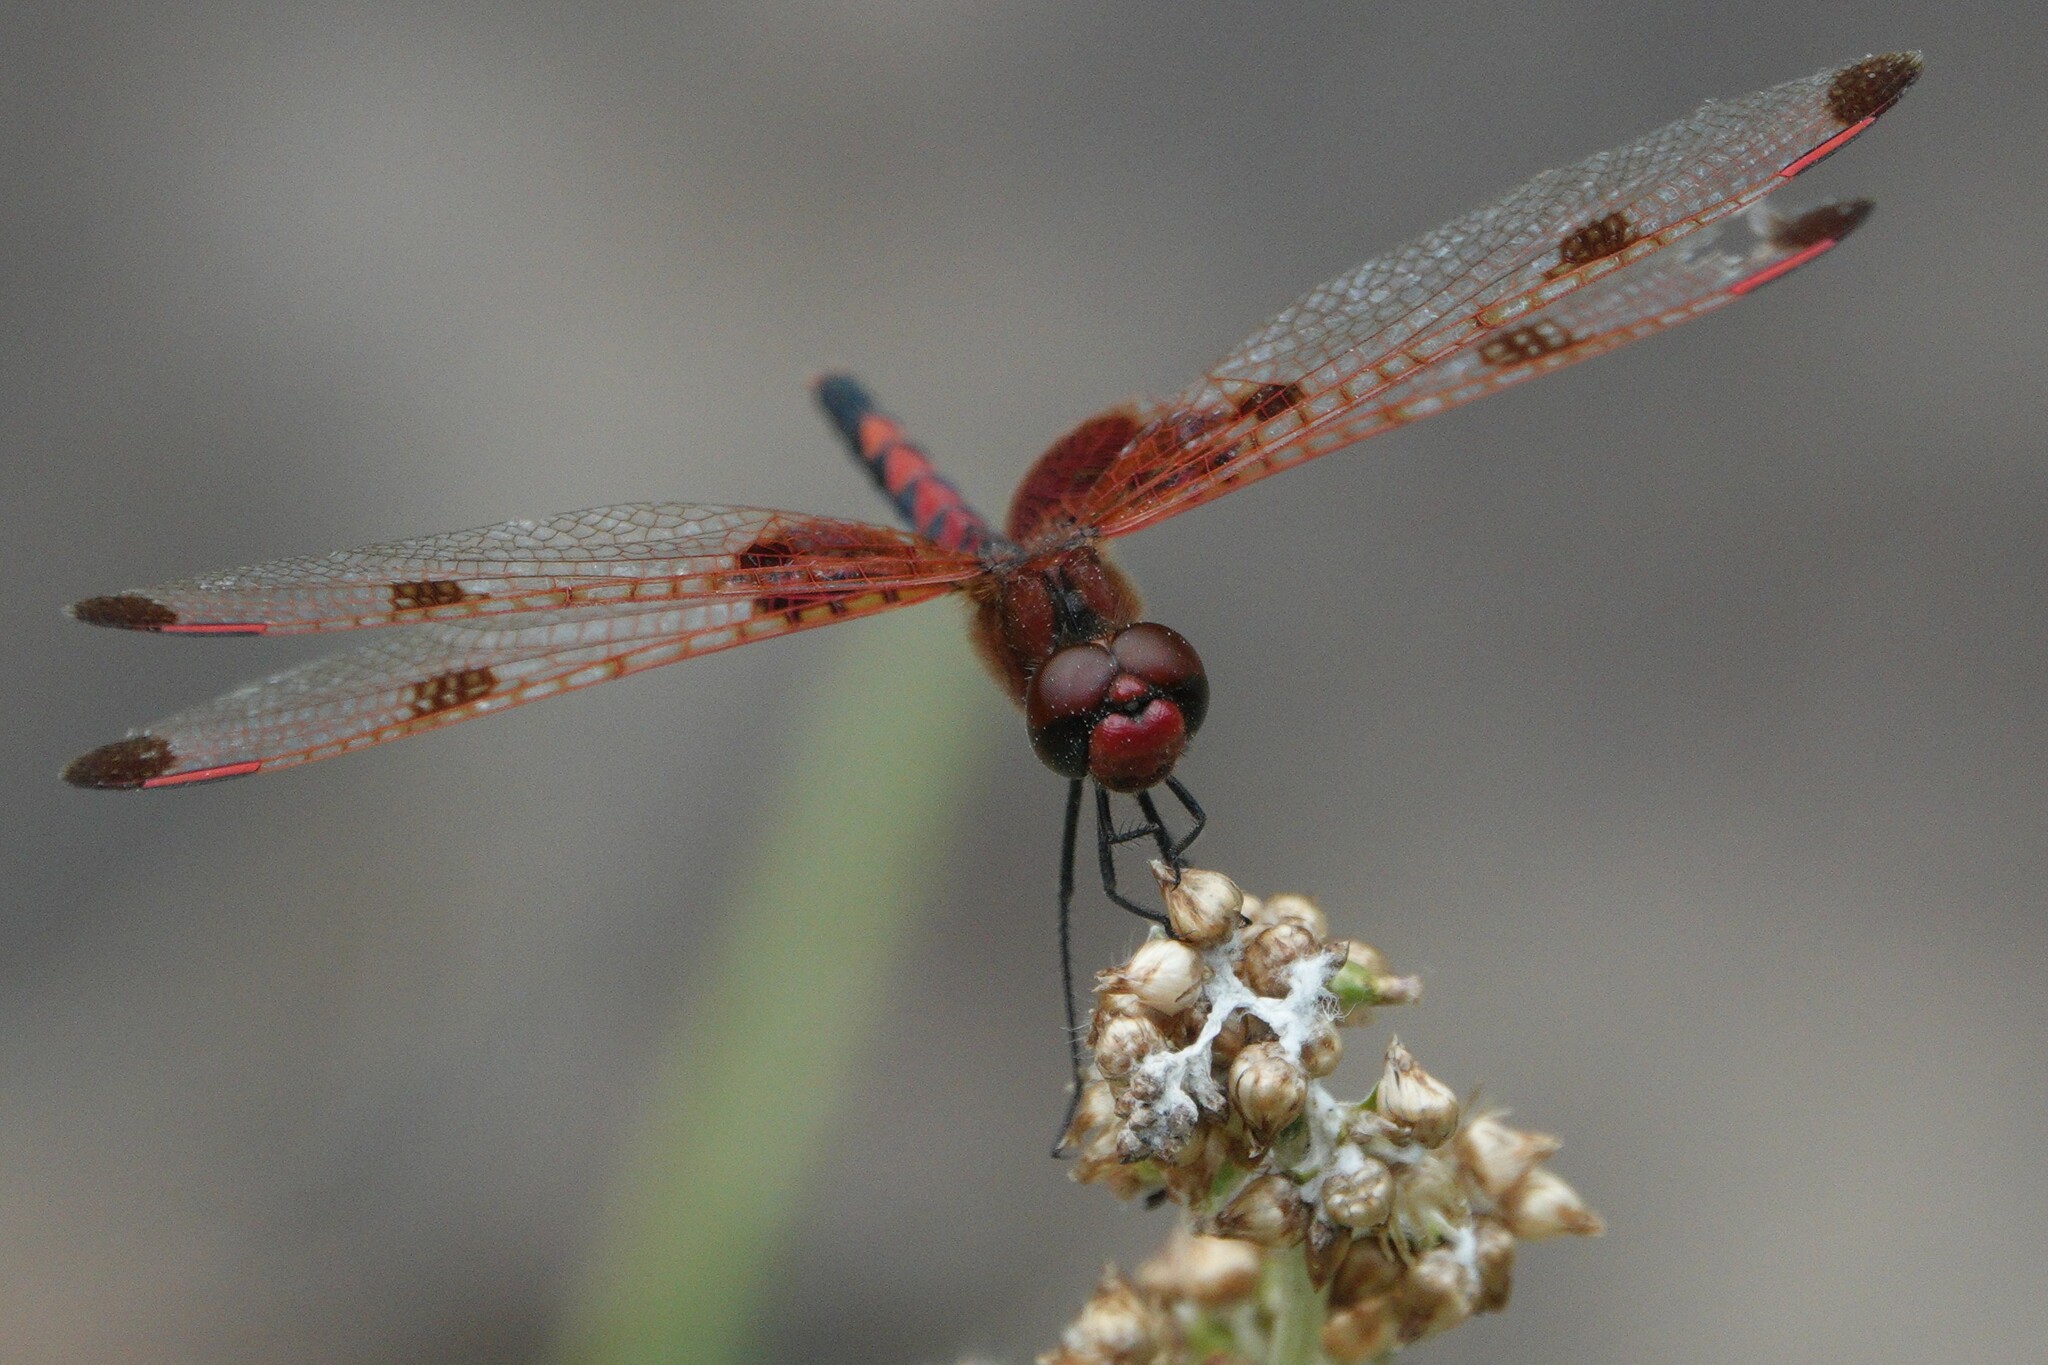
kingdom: Animalia
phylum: Arthropoda
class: Insecta
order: Odonata
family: Libellulidae
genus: Celithemis
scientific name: Celithemis elisa
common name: Calico pennant
